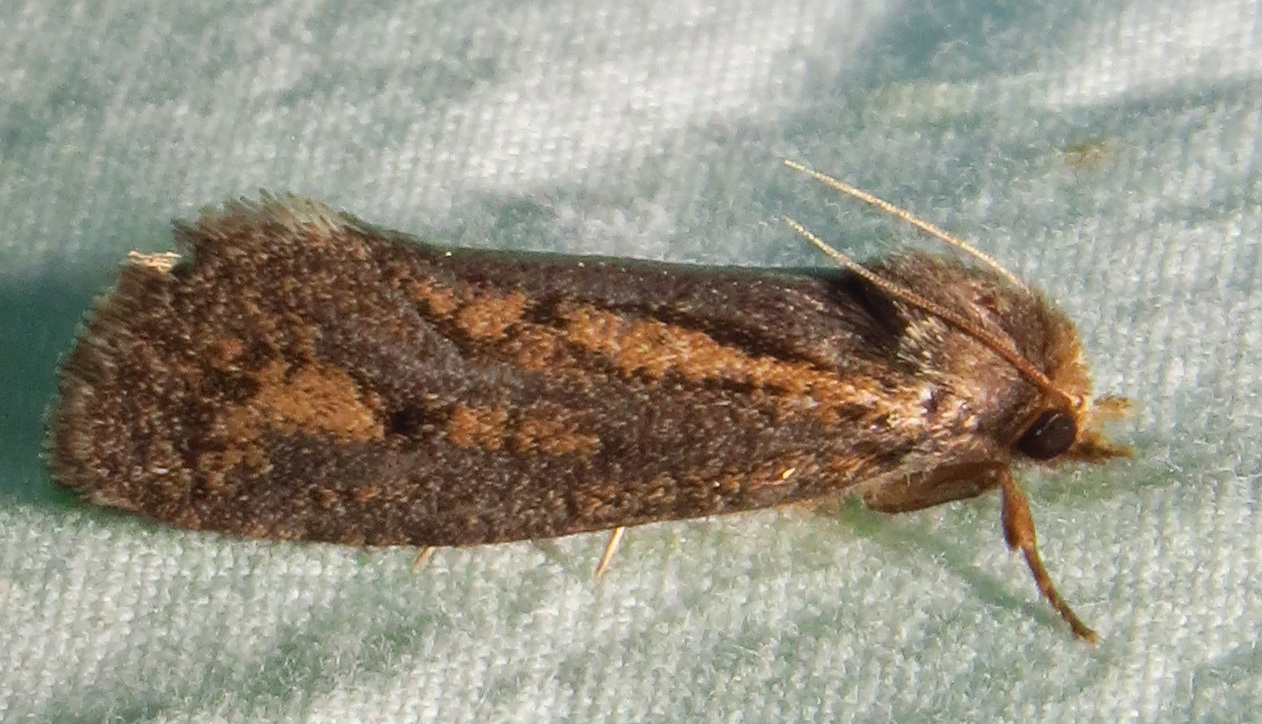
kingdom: Animalia
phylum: Arthropoda
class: Insecta
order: Lepidoptera
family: Tineidae
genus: Acrolophus
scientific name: Acrolophus popeanella
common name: Clemens' grass tubeworm moth
